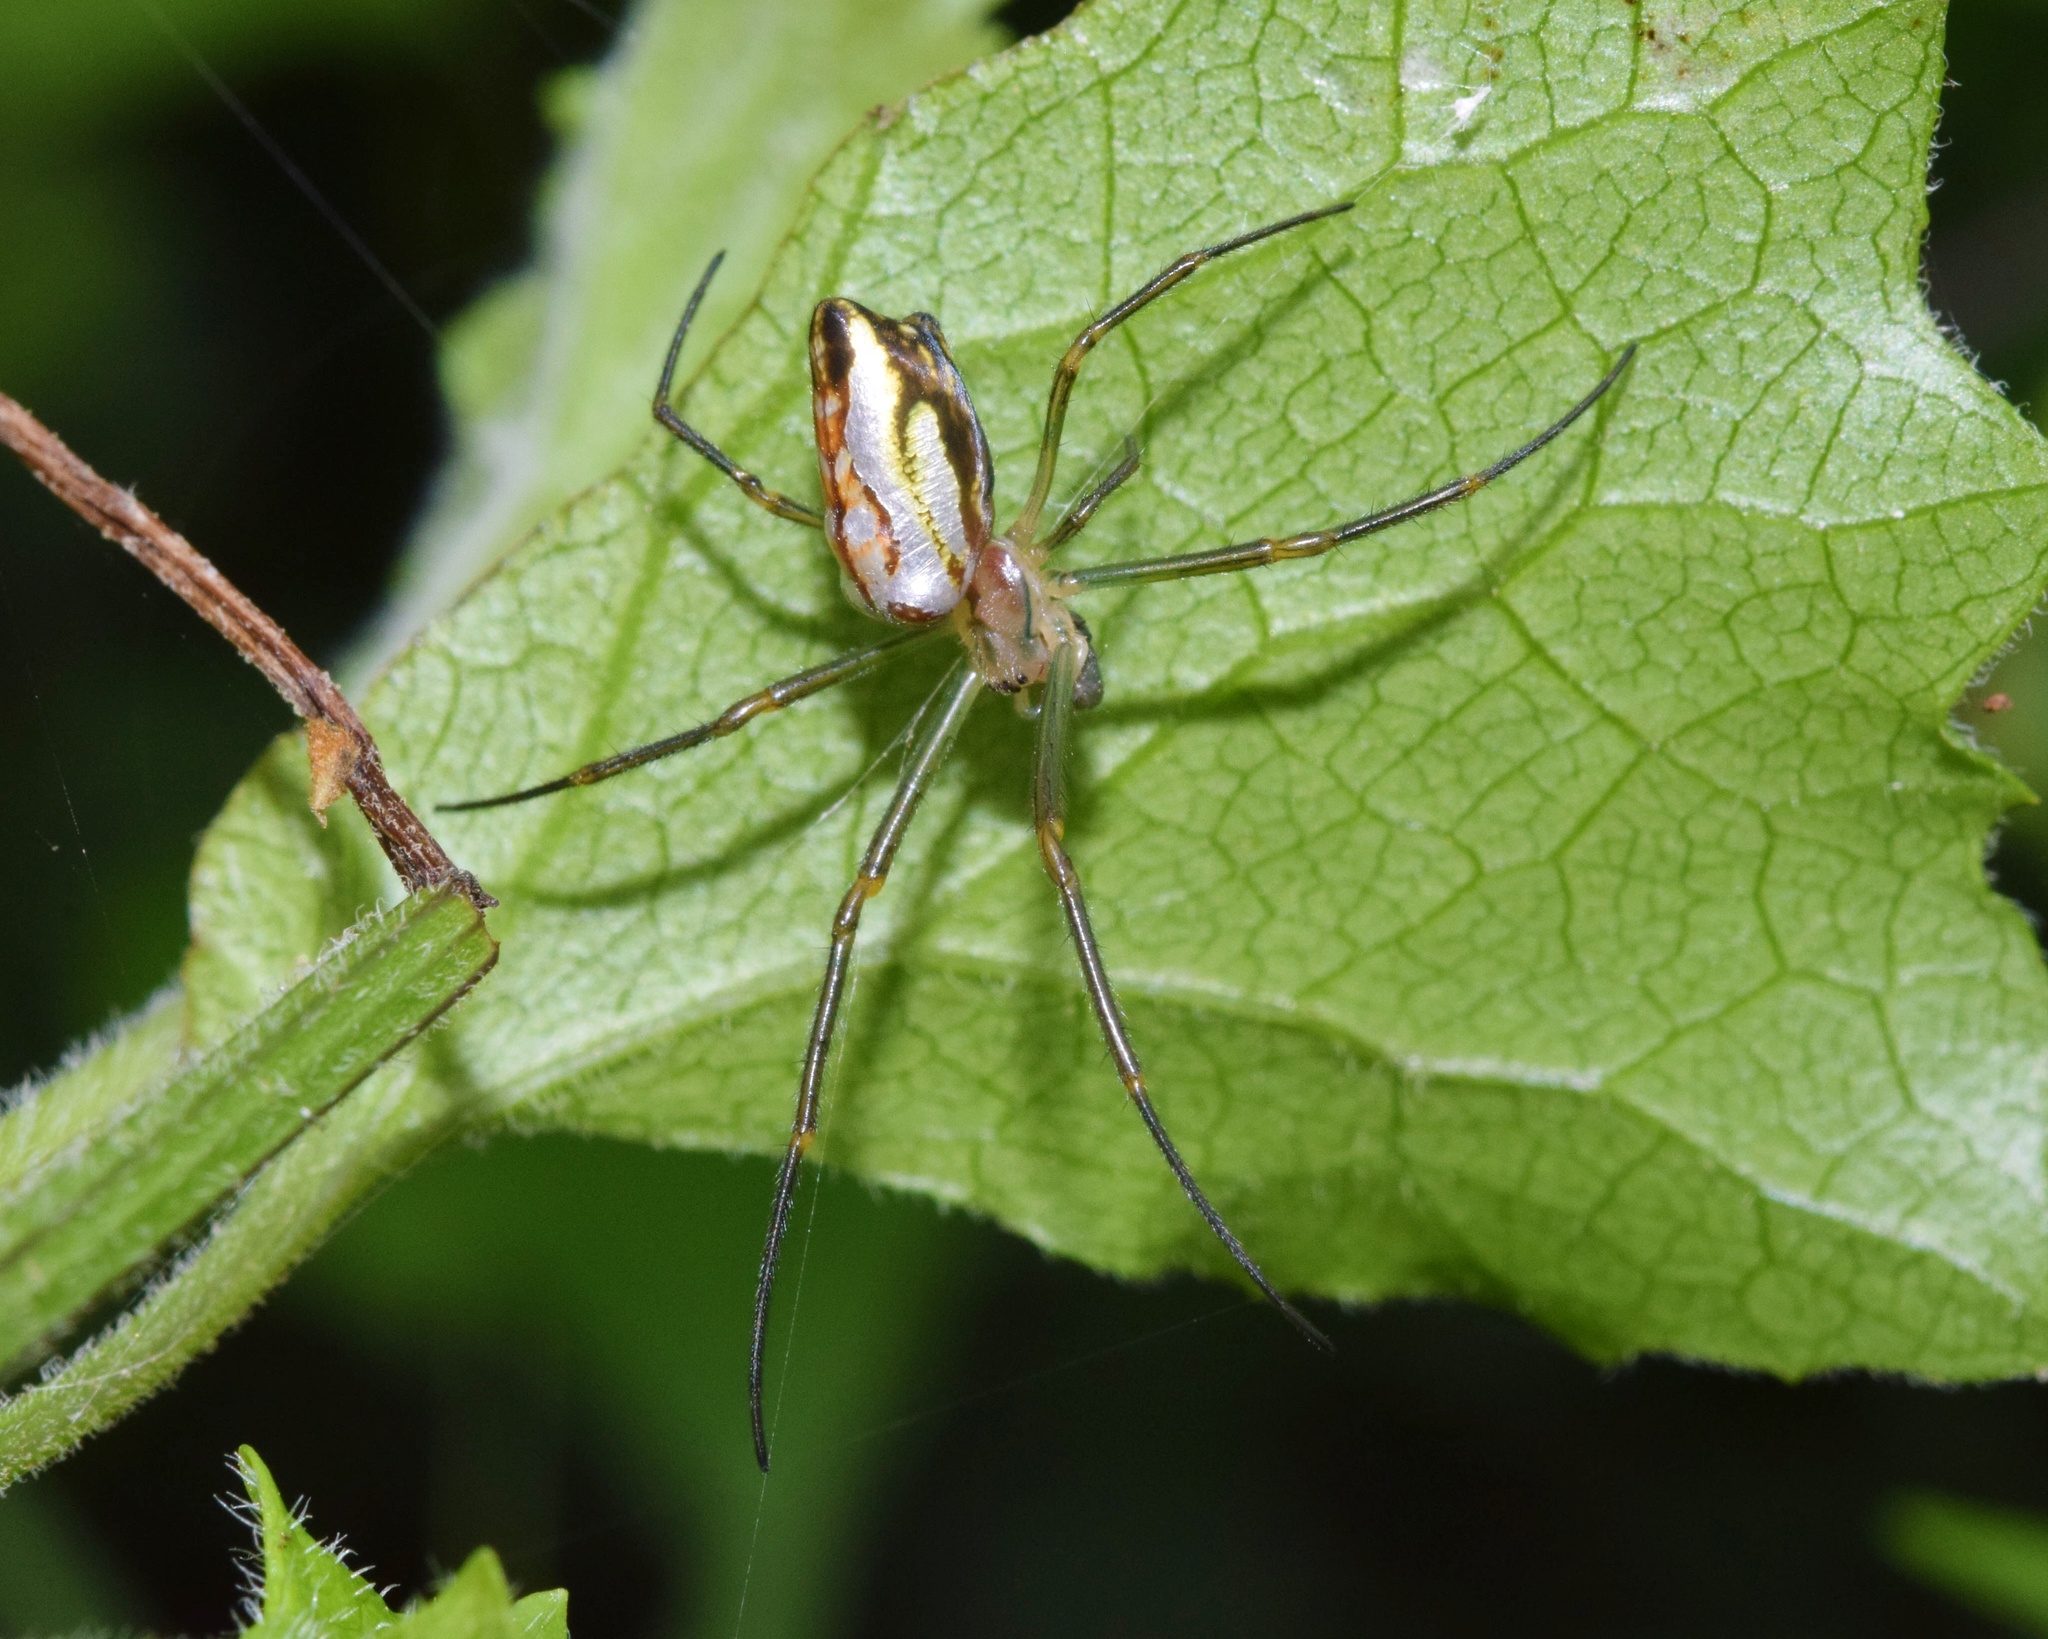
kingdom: Animalia
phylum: Arthropoda
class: Arachnida
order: Araneae
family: Tetragnathidae
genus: Leucauge
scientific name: Leucauge festiva
